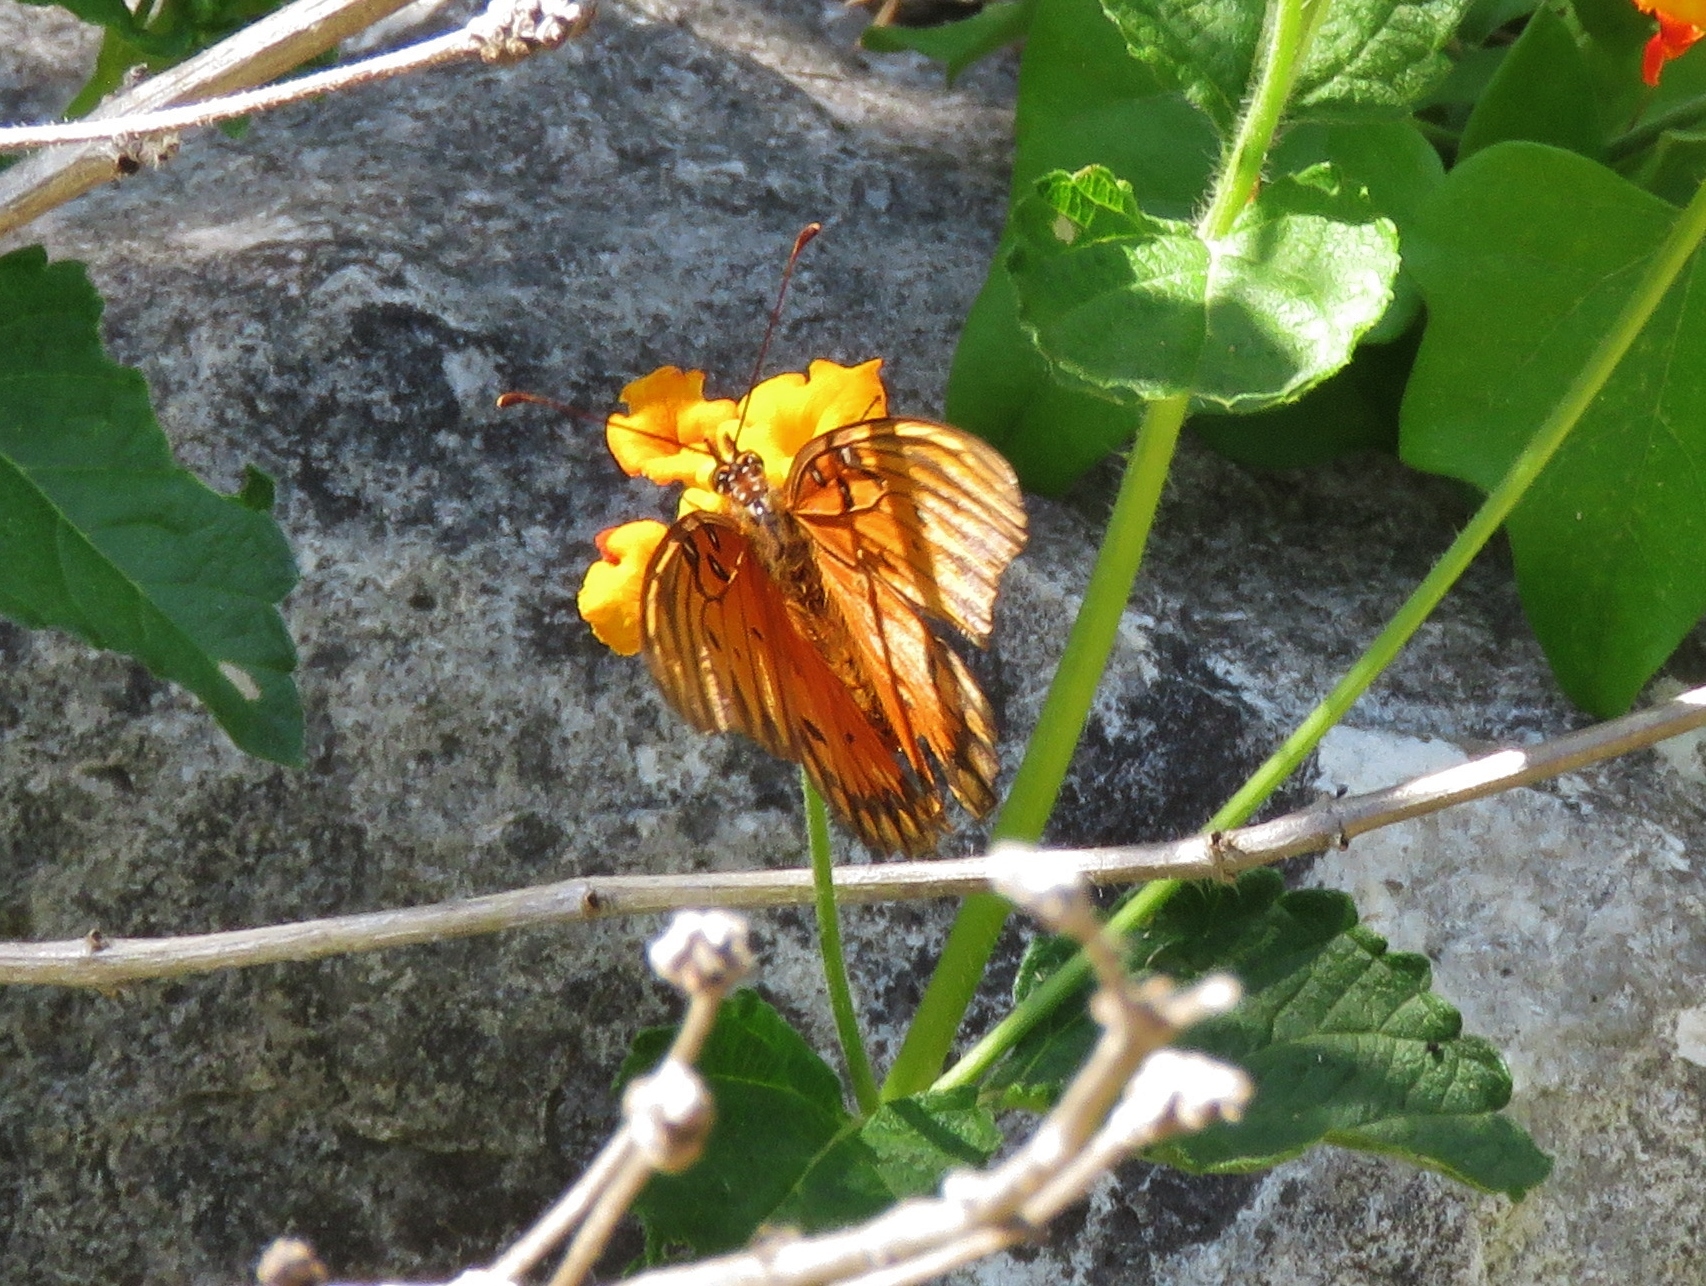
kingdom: Animalia
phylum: Arthropoda
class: Insecta
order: Lepidoptera
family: Nymphalidae
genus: Dione
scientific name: Dione vanillae
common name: Gulf fritillary
